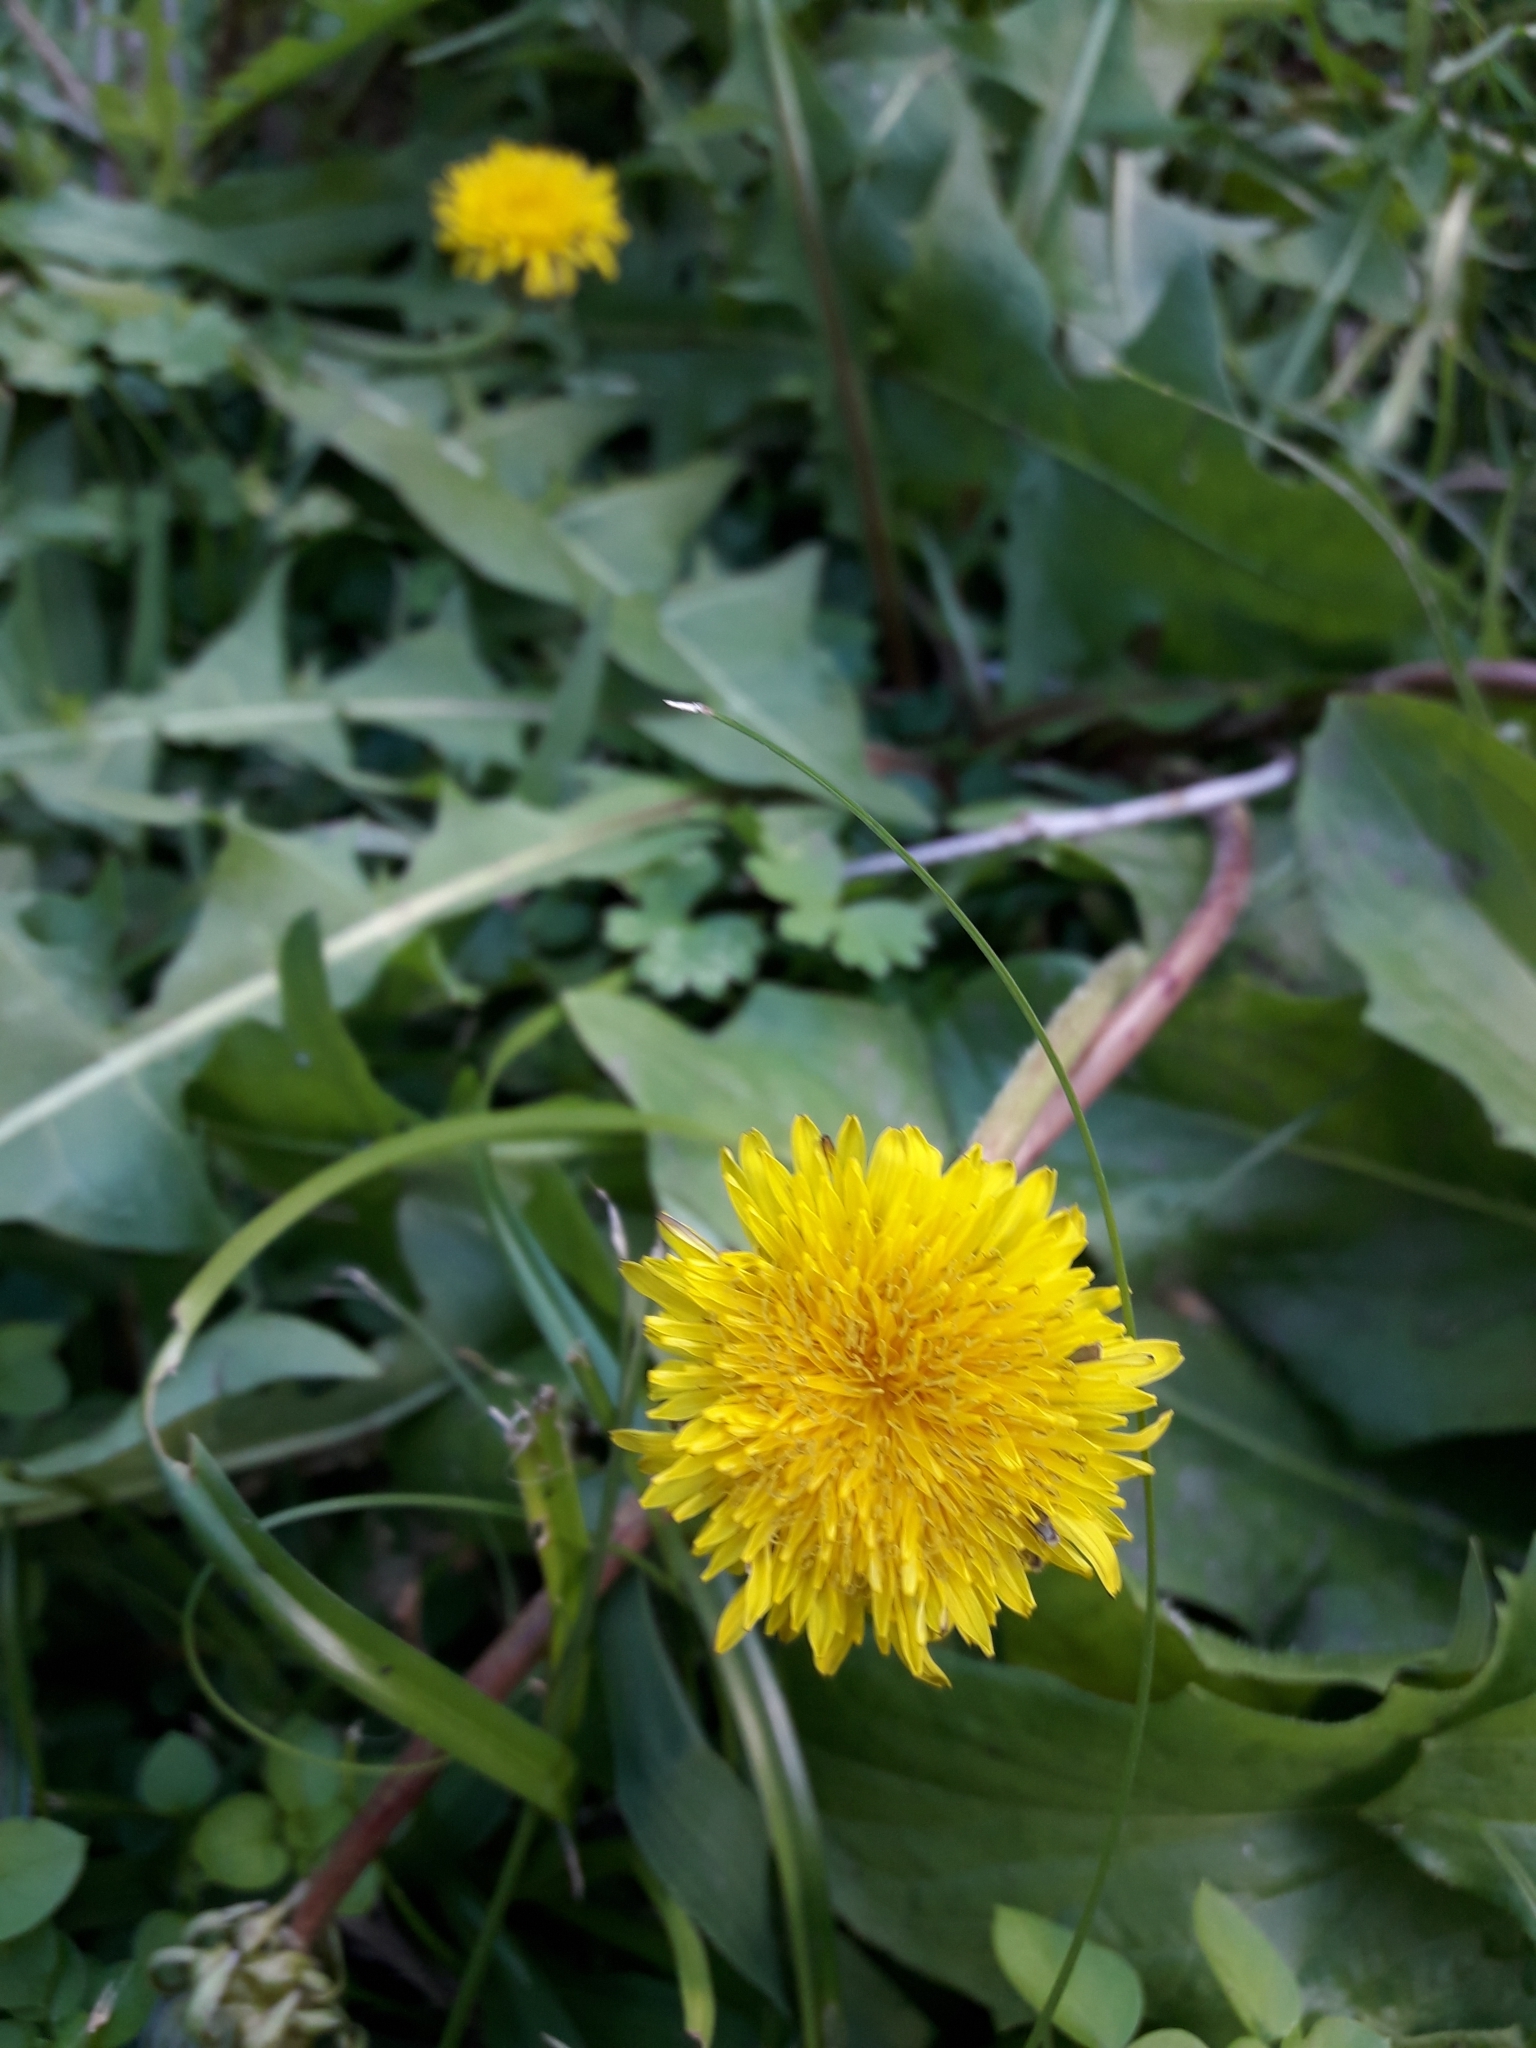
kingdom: Plantae
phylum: Tracheophyta
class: Magnoliopsida
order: Asterales
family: Asteraceae
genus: Taraxacum
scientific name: Taraxacum officinale
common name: Common dandelion
